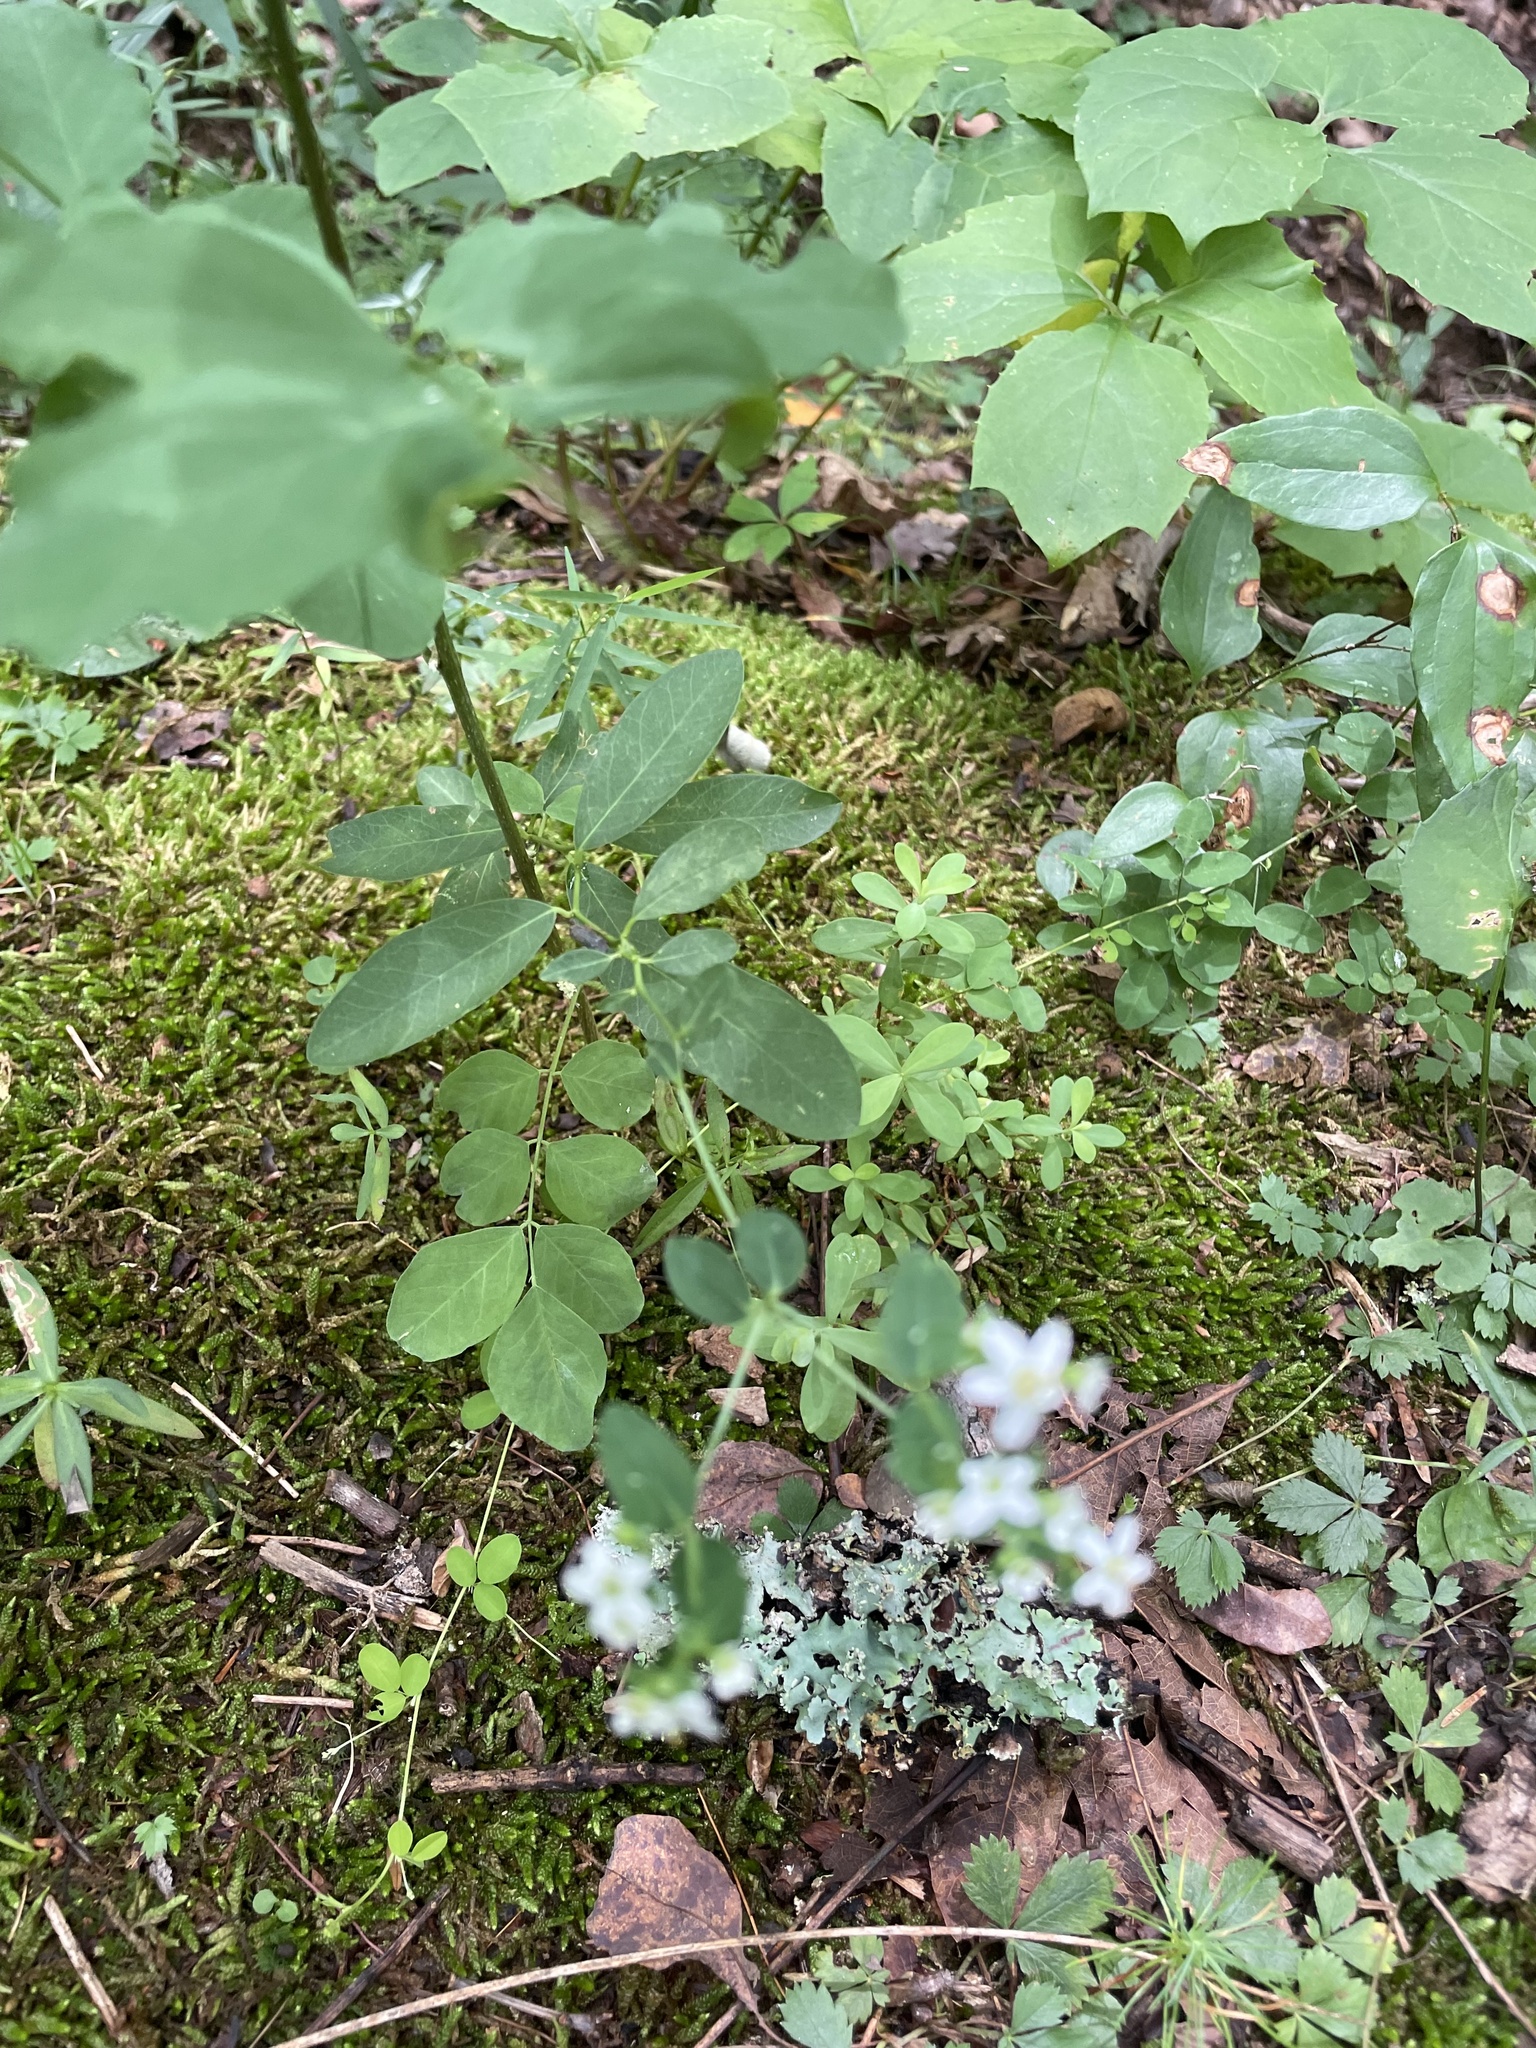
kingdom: Plantae
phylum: Tracheophyta
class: Magnoliopsida
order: Malpighiales
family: Euphorbiaceae
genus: Euphorbia
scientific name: Euphorbia corollata
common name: Flowering spurge
